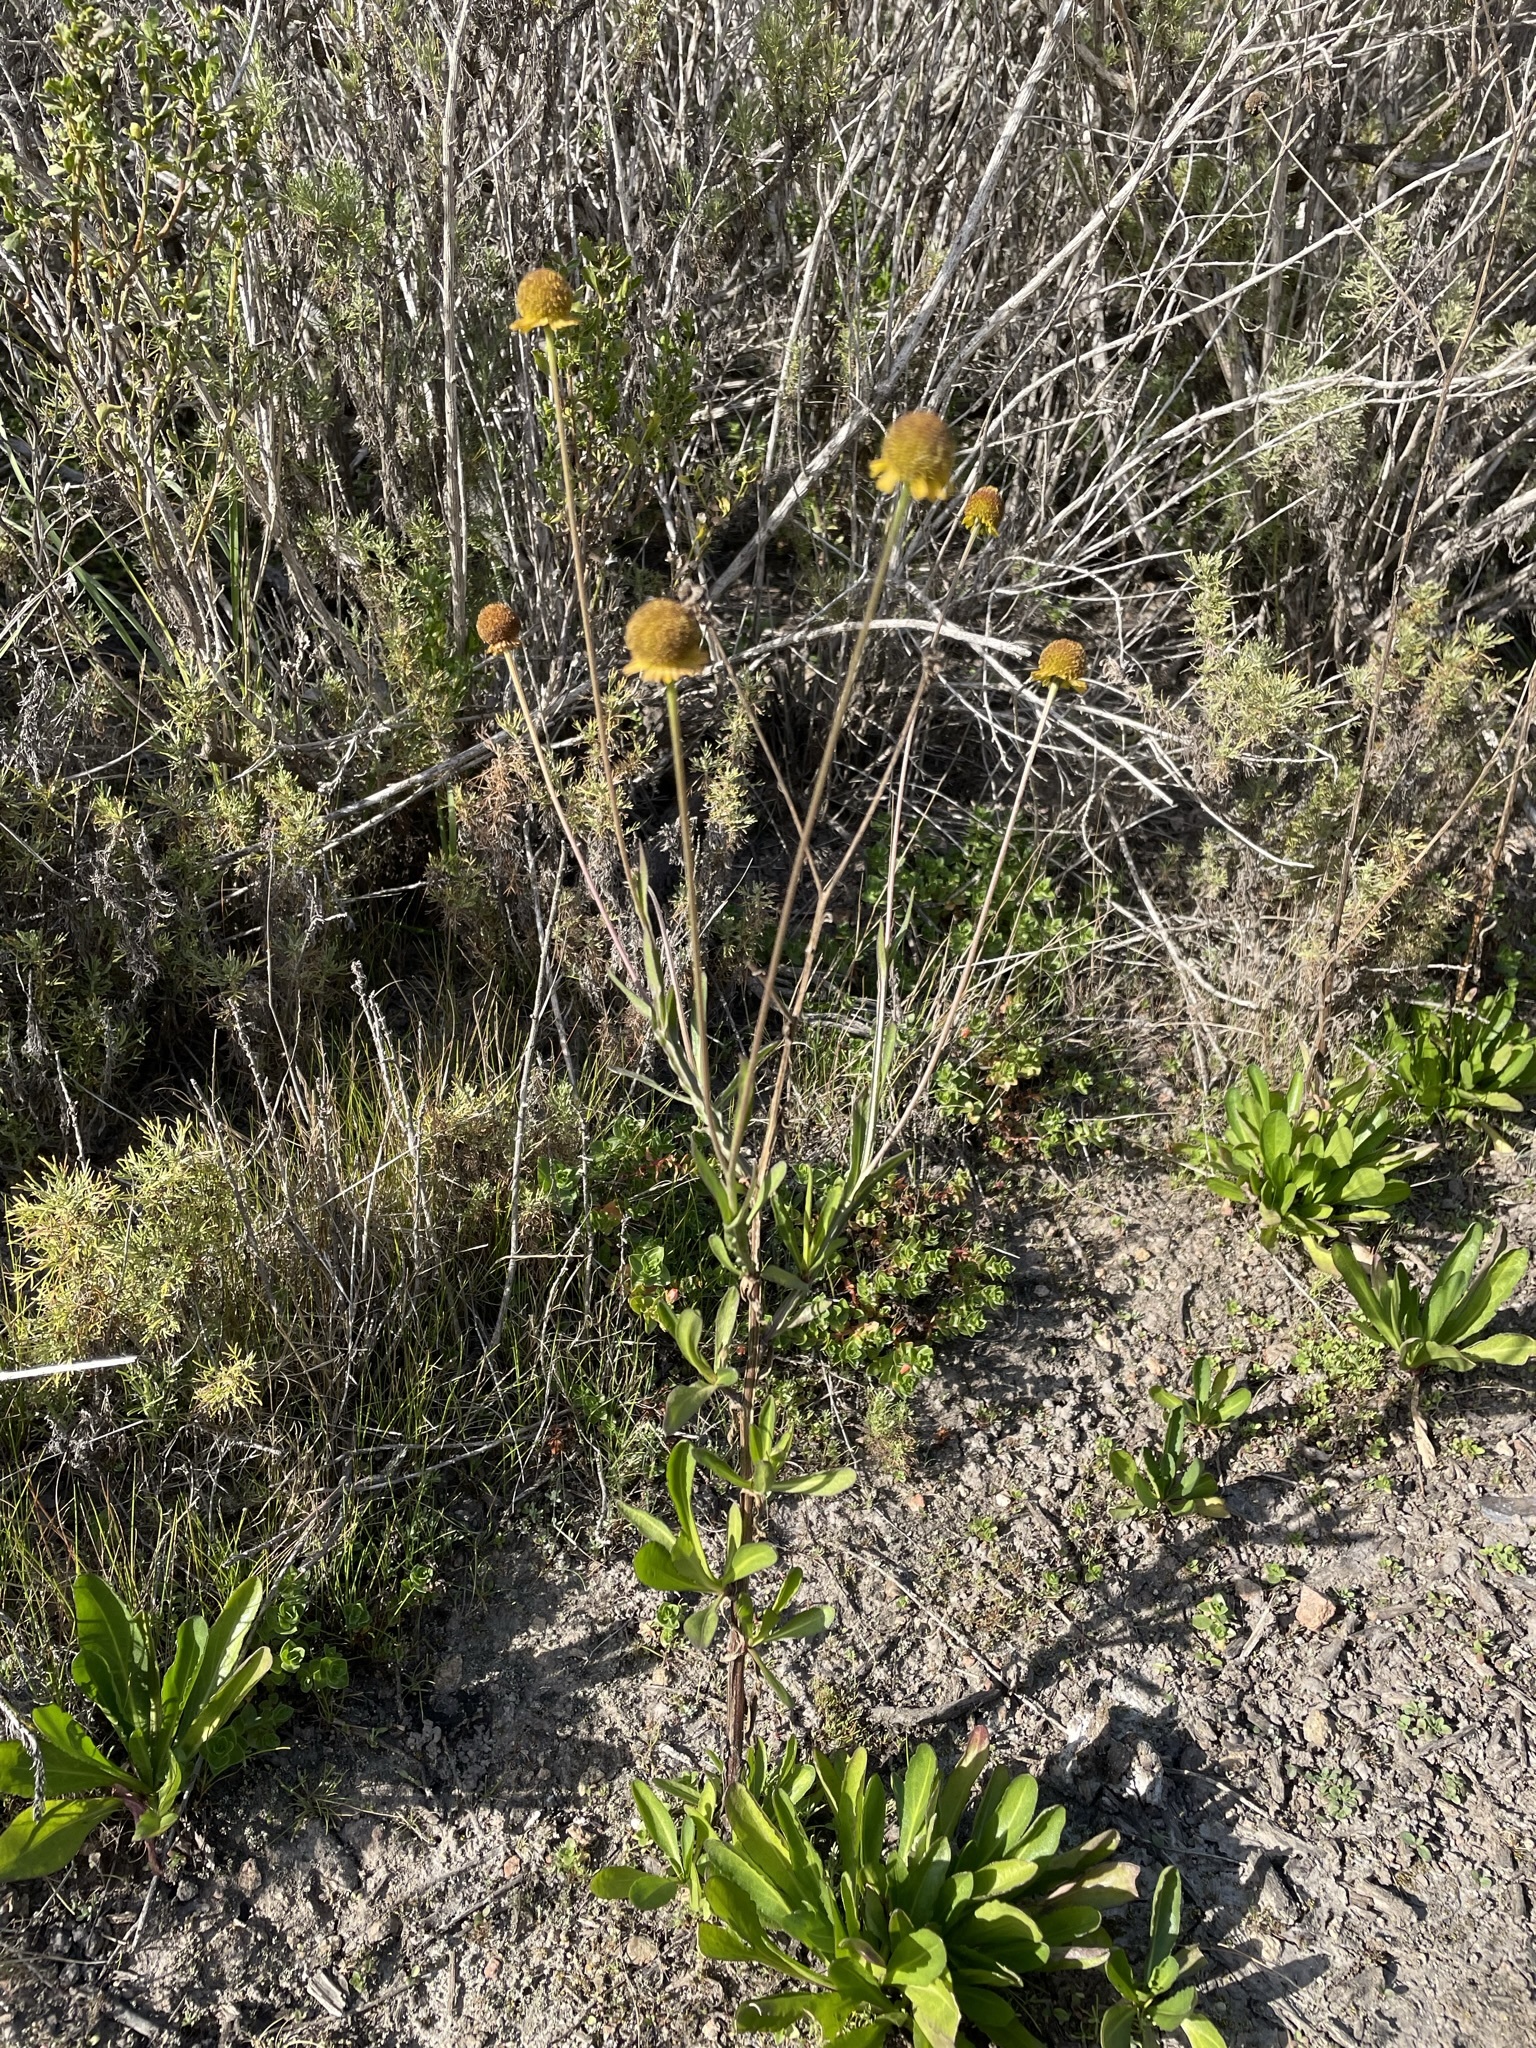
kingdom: Plantae
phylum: Tracheophyta
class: Magnoliopsida
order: Asterales
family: Asteraceae
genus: Helenium
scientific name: Helenium puberulum
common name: Sneezewort
